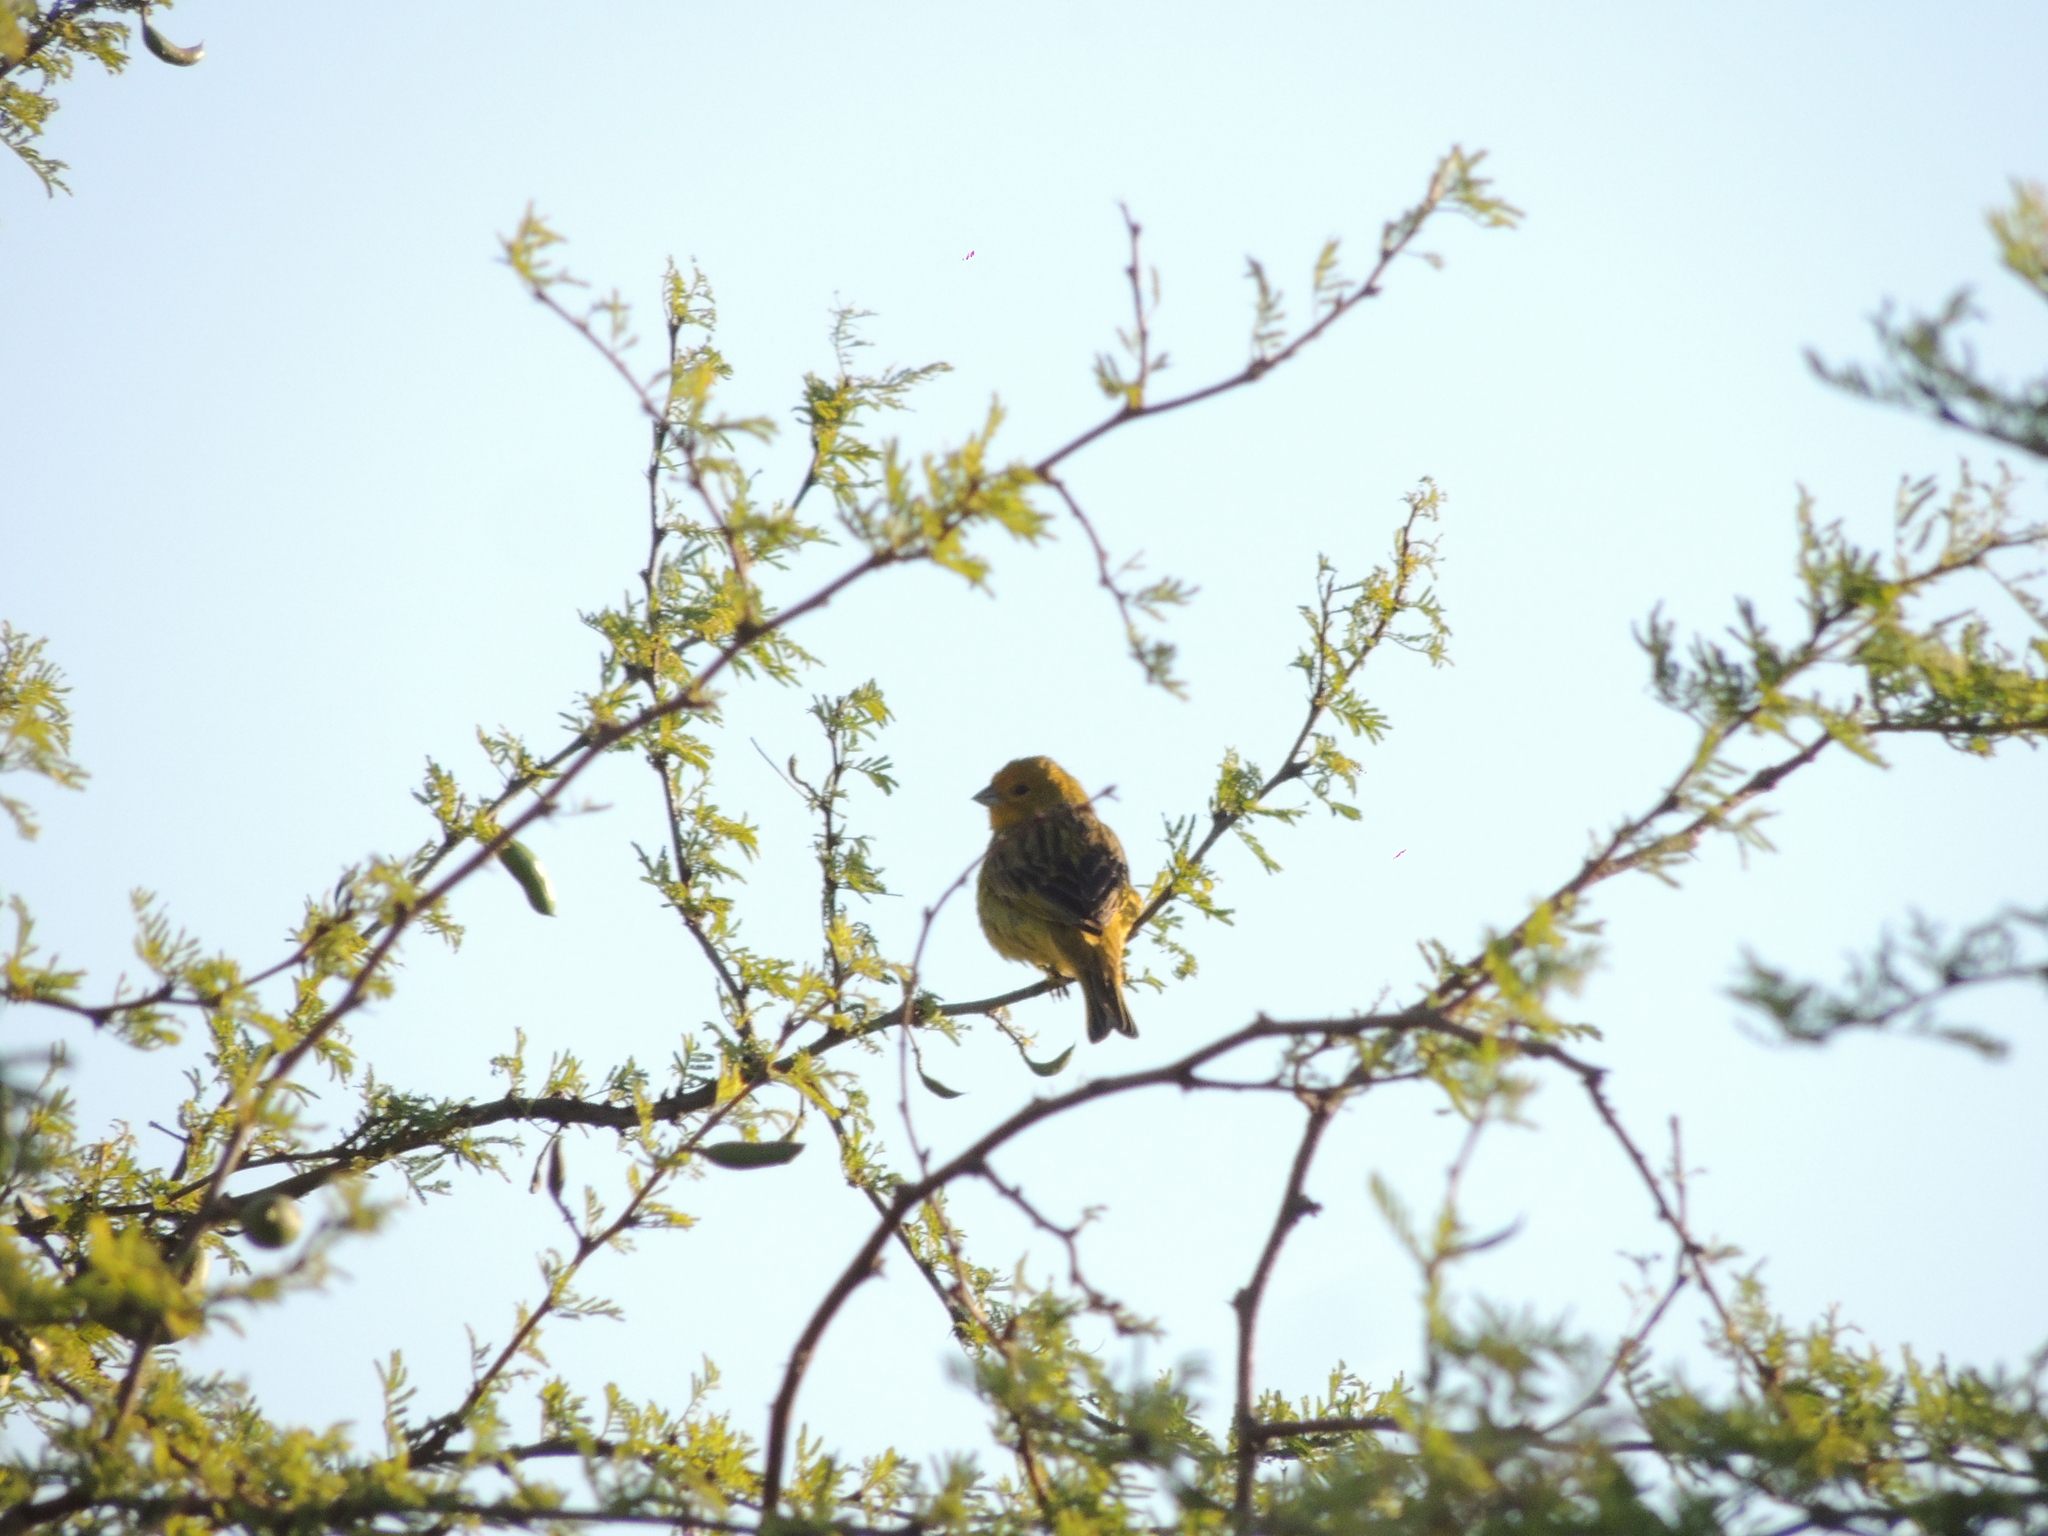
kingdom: Animalia
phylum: Chordata
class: Aves
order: Passeriformes
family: Thraupidae
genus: Sicalis
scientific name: Sicalis flaveola
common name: Saffron finch
